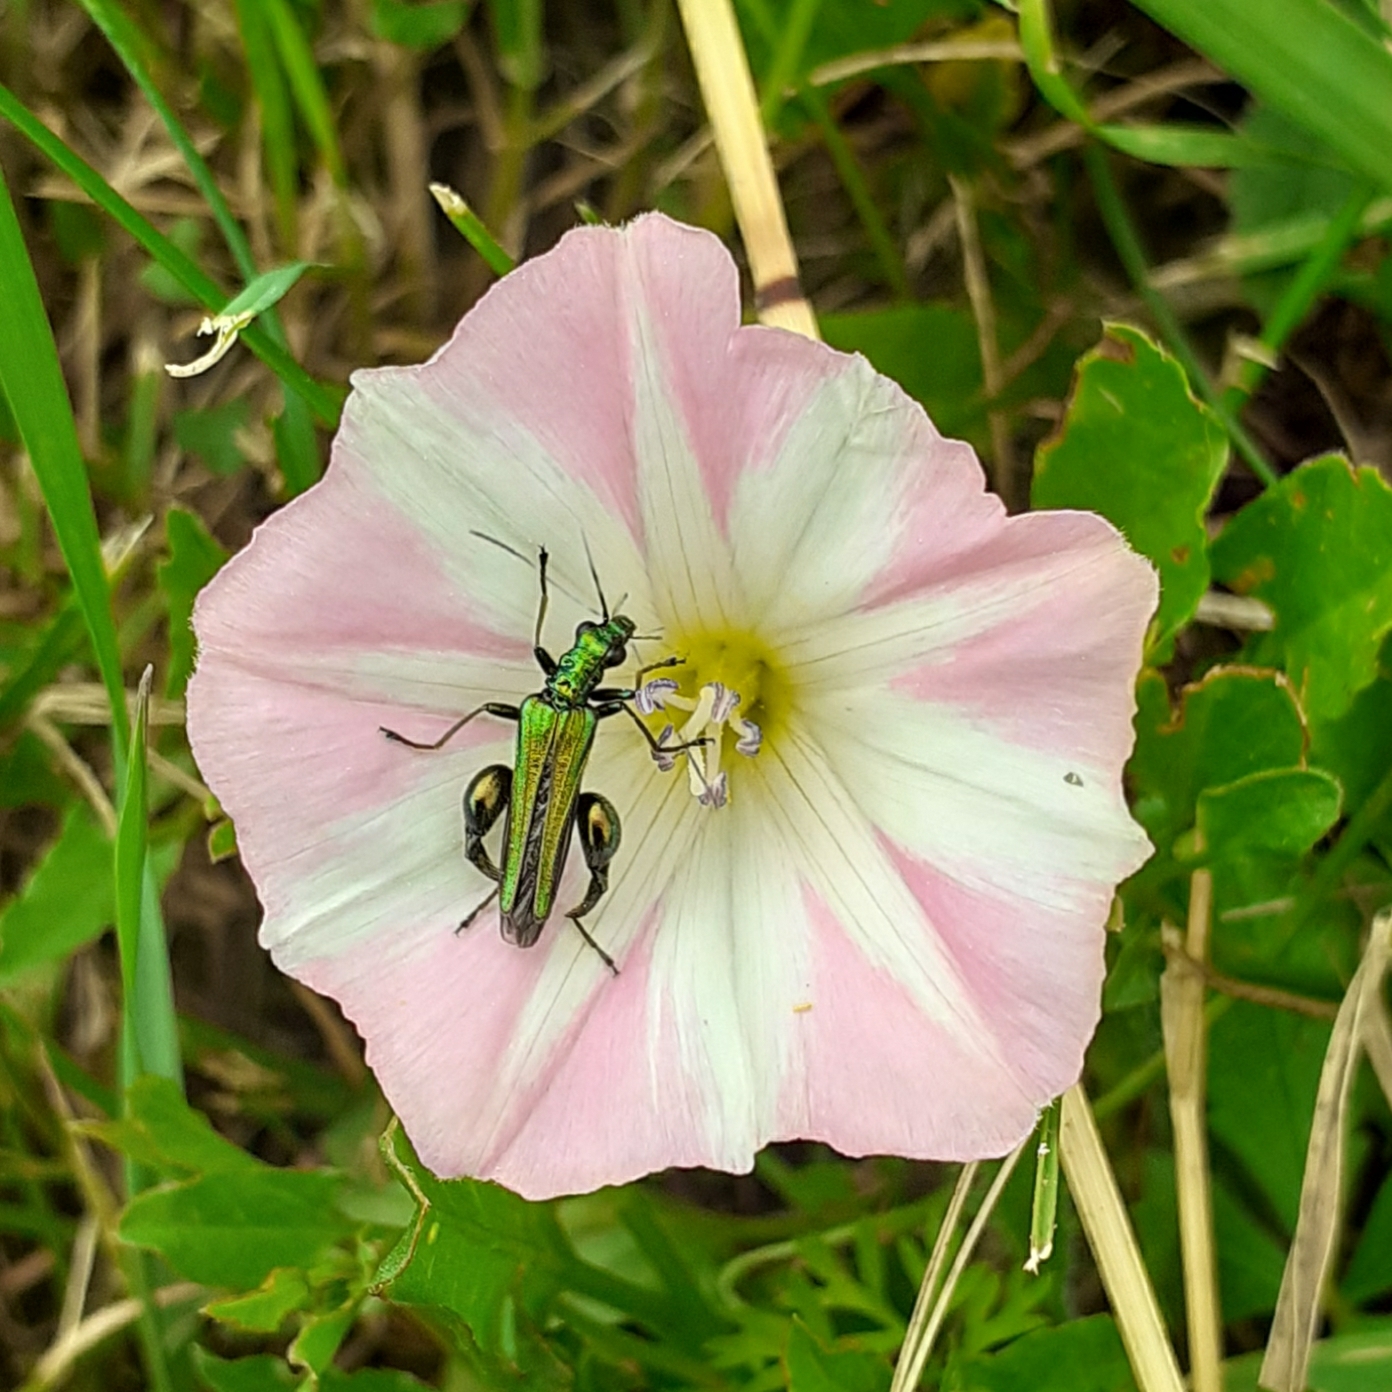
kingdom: Animalia
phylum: Arthropoda
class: Insecta
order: Coleoptera
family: Oedemeridae
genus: Oedemera
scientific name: Oedemera nobilis
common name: Swollen-thighed beetle
